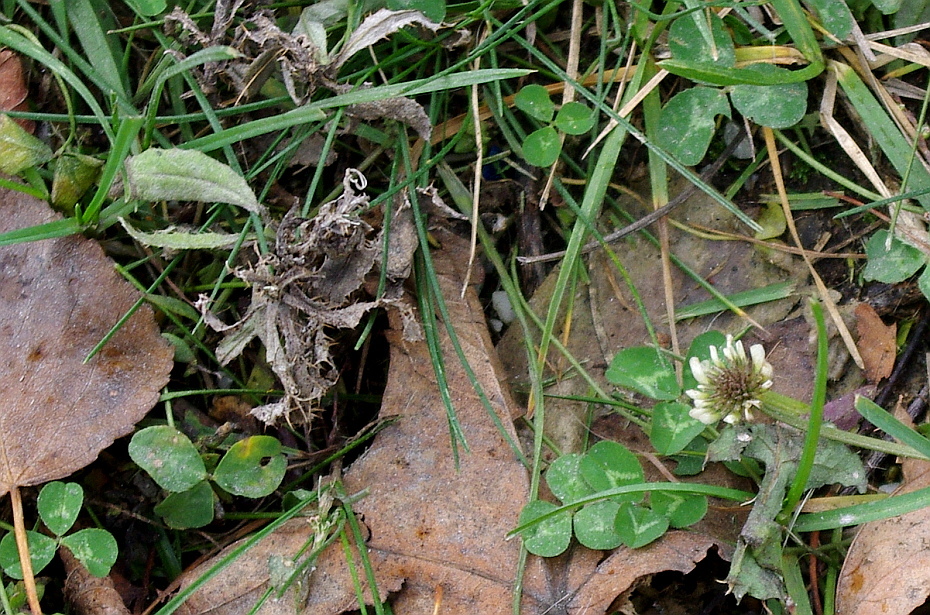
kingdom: Plantae
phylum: Tracheophyta
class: Magnoliopsida
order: Fabales
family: Fabaceae
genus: Trifolium
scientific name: Trifolium repens
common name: White clover
